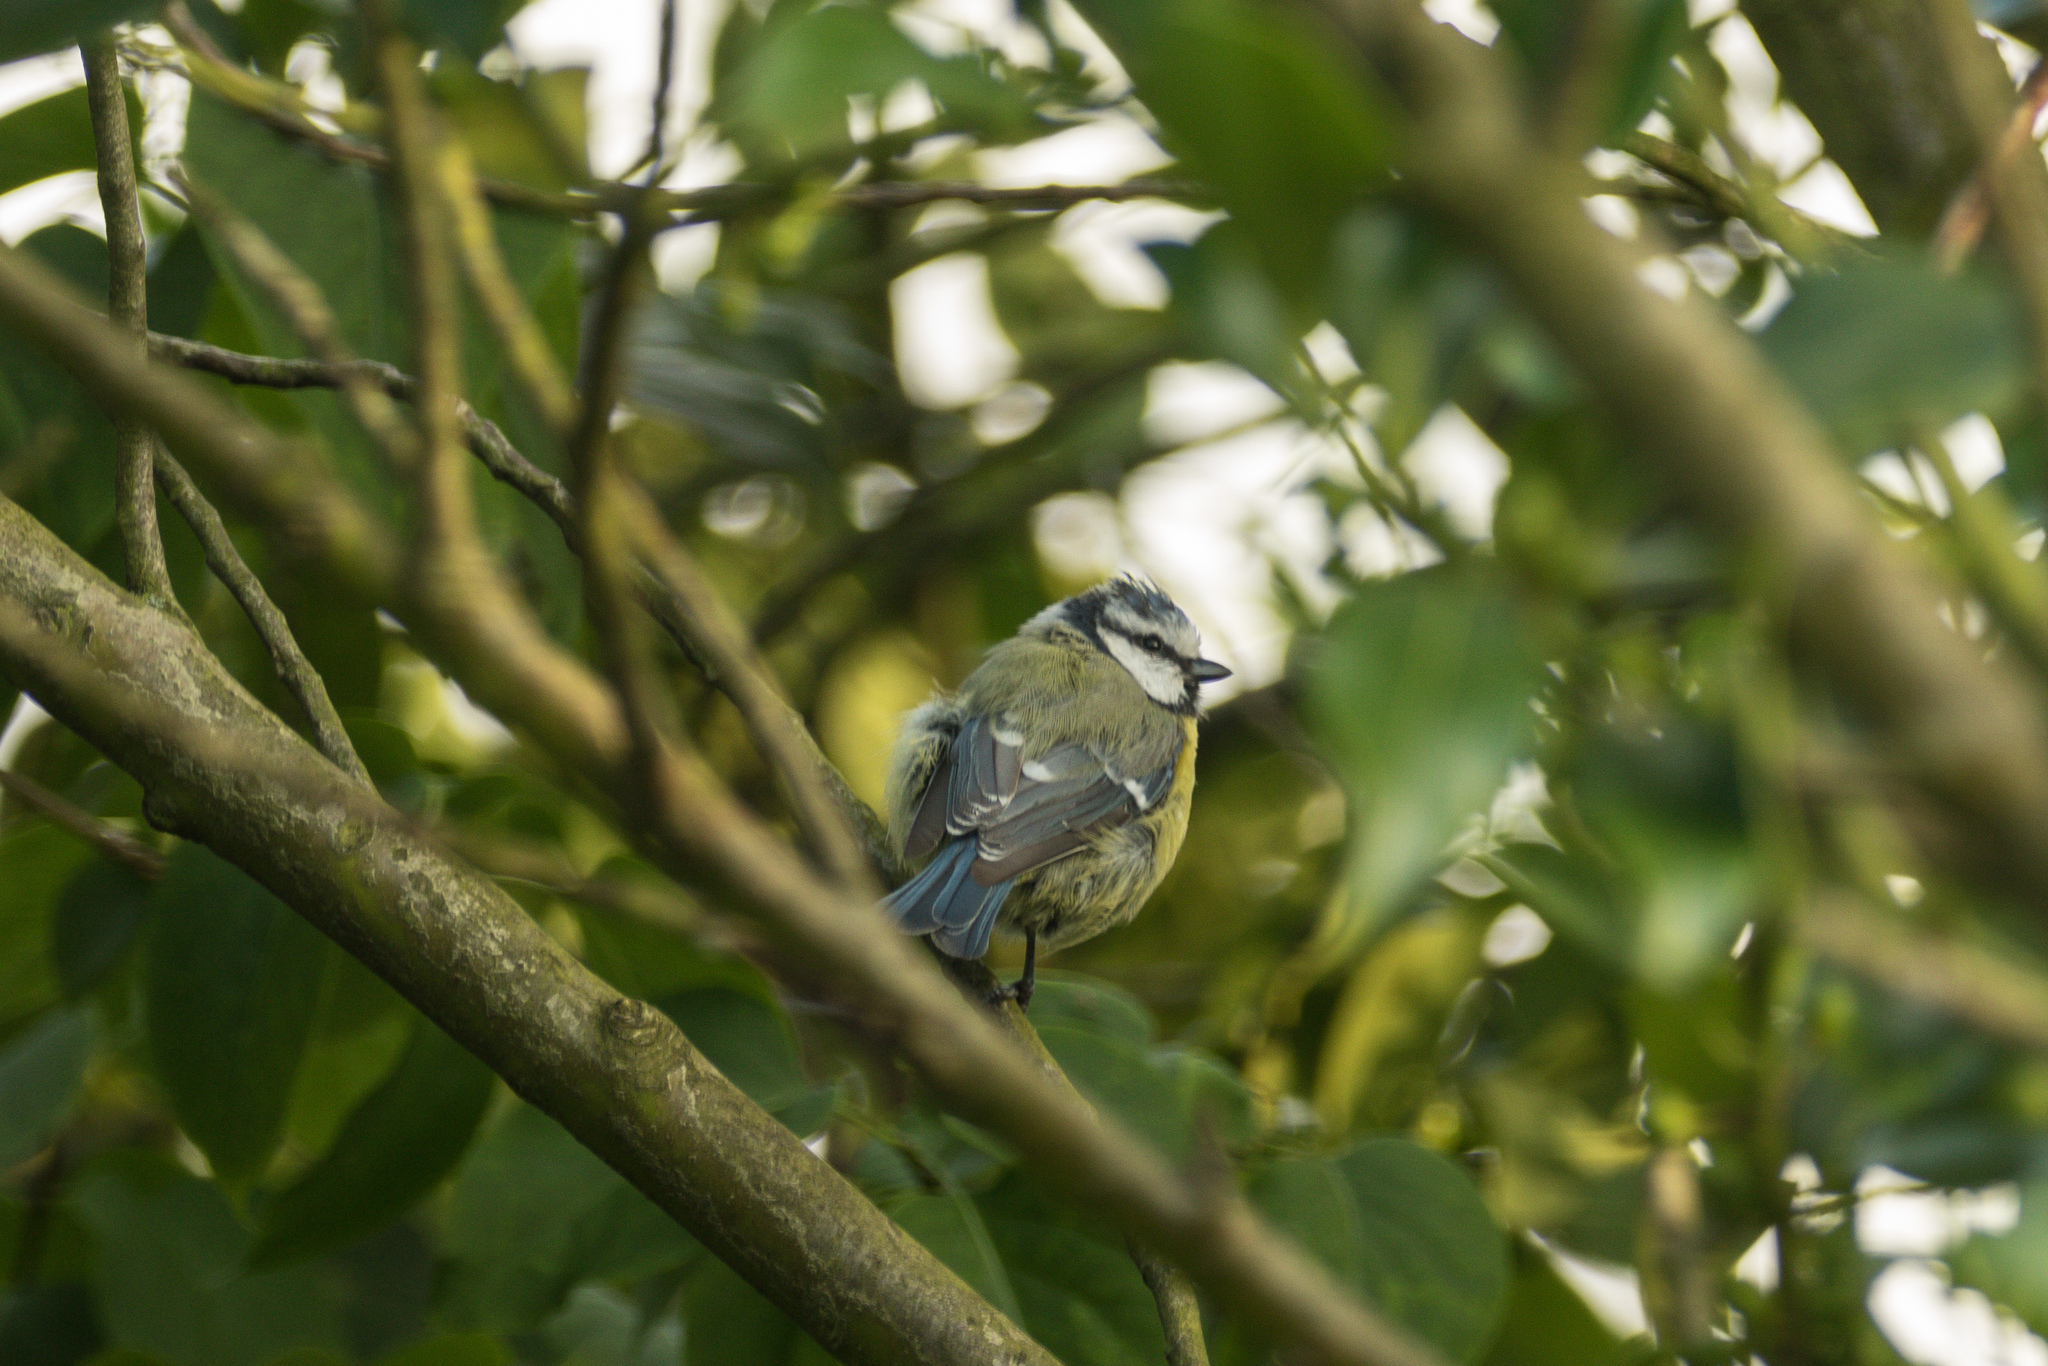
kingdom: Animalia
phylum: Chordata
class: Aves
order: Passeriformes
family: Paridae
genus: Cyanistes
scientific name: Cyanistes caeruleus
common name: Eurasian blue tit
